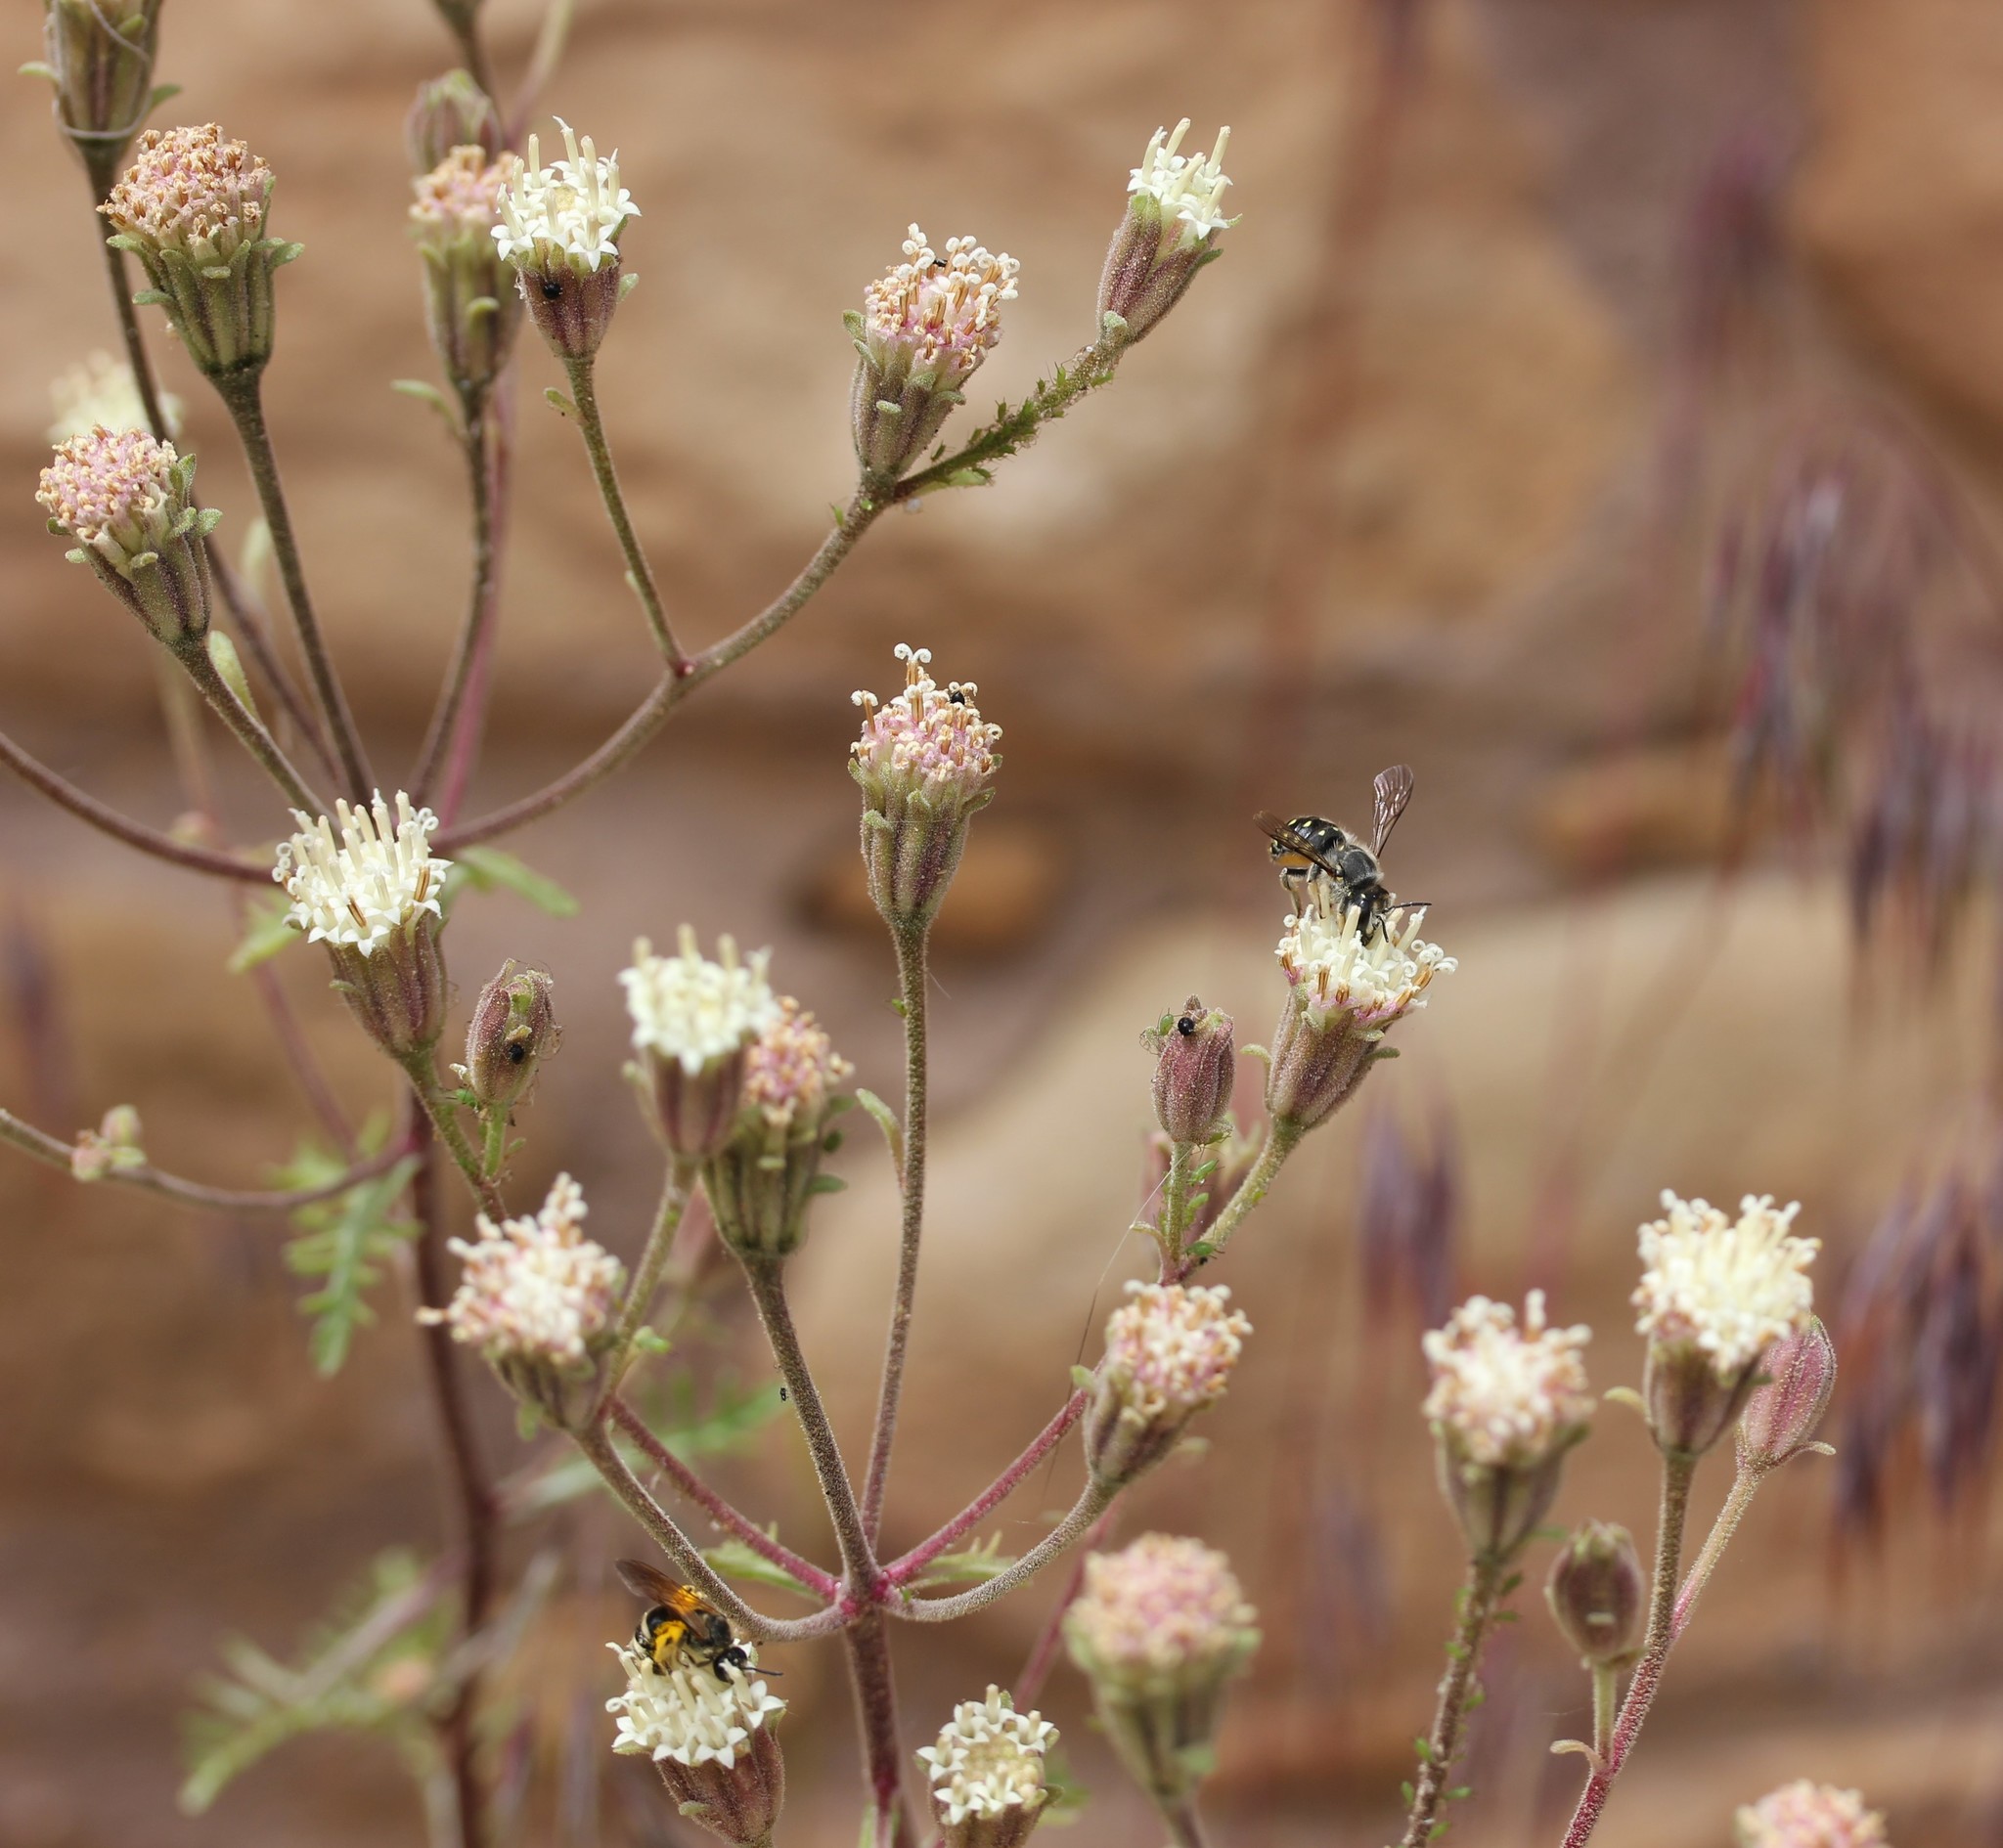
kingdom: Plantae
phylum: Tracheophyta
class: Magnoliopsida
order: Asterales
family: Asteraceae
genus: Chaenactis
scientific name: Chaenactis douglasii
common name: Hoary pincushion
